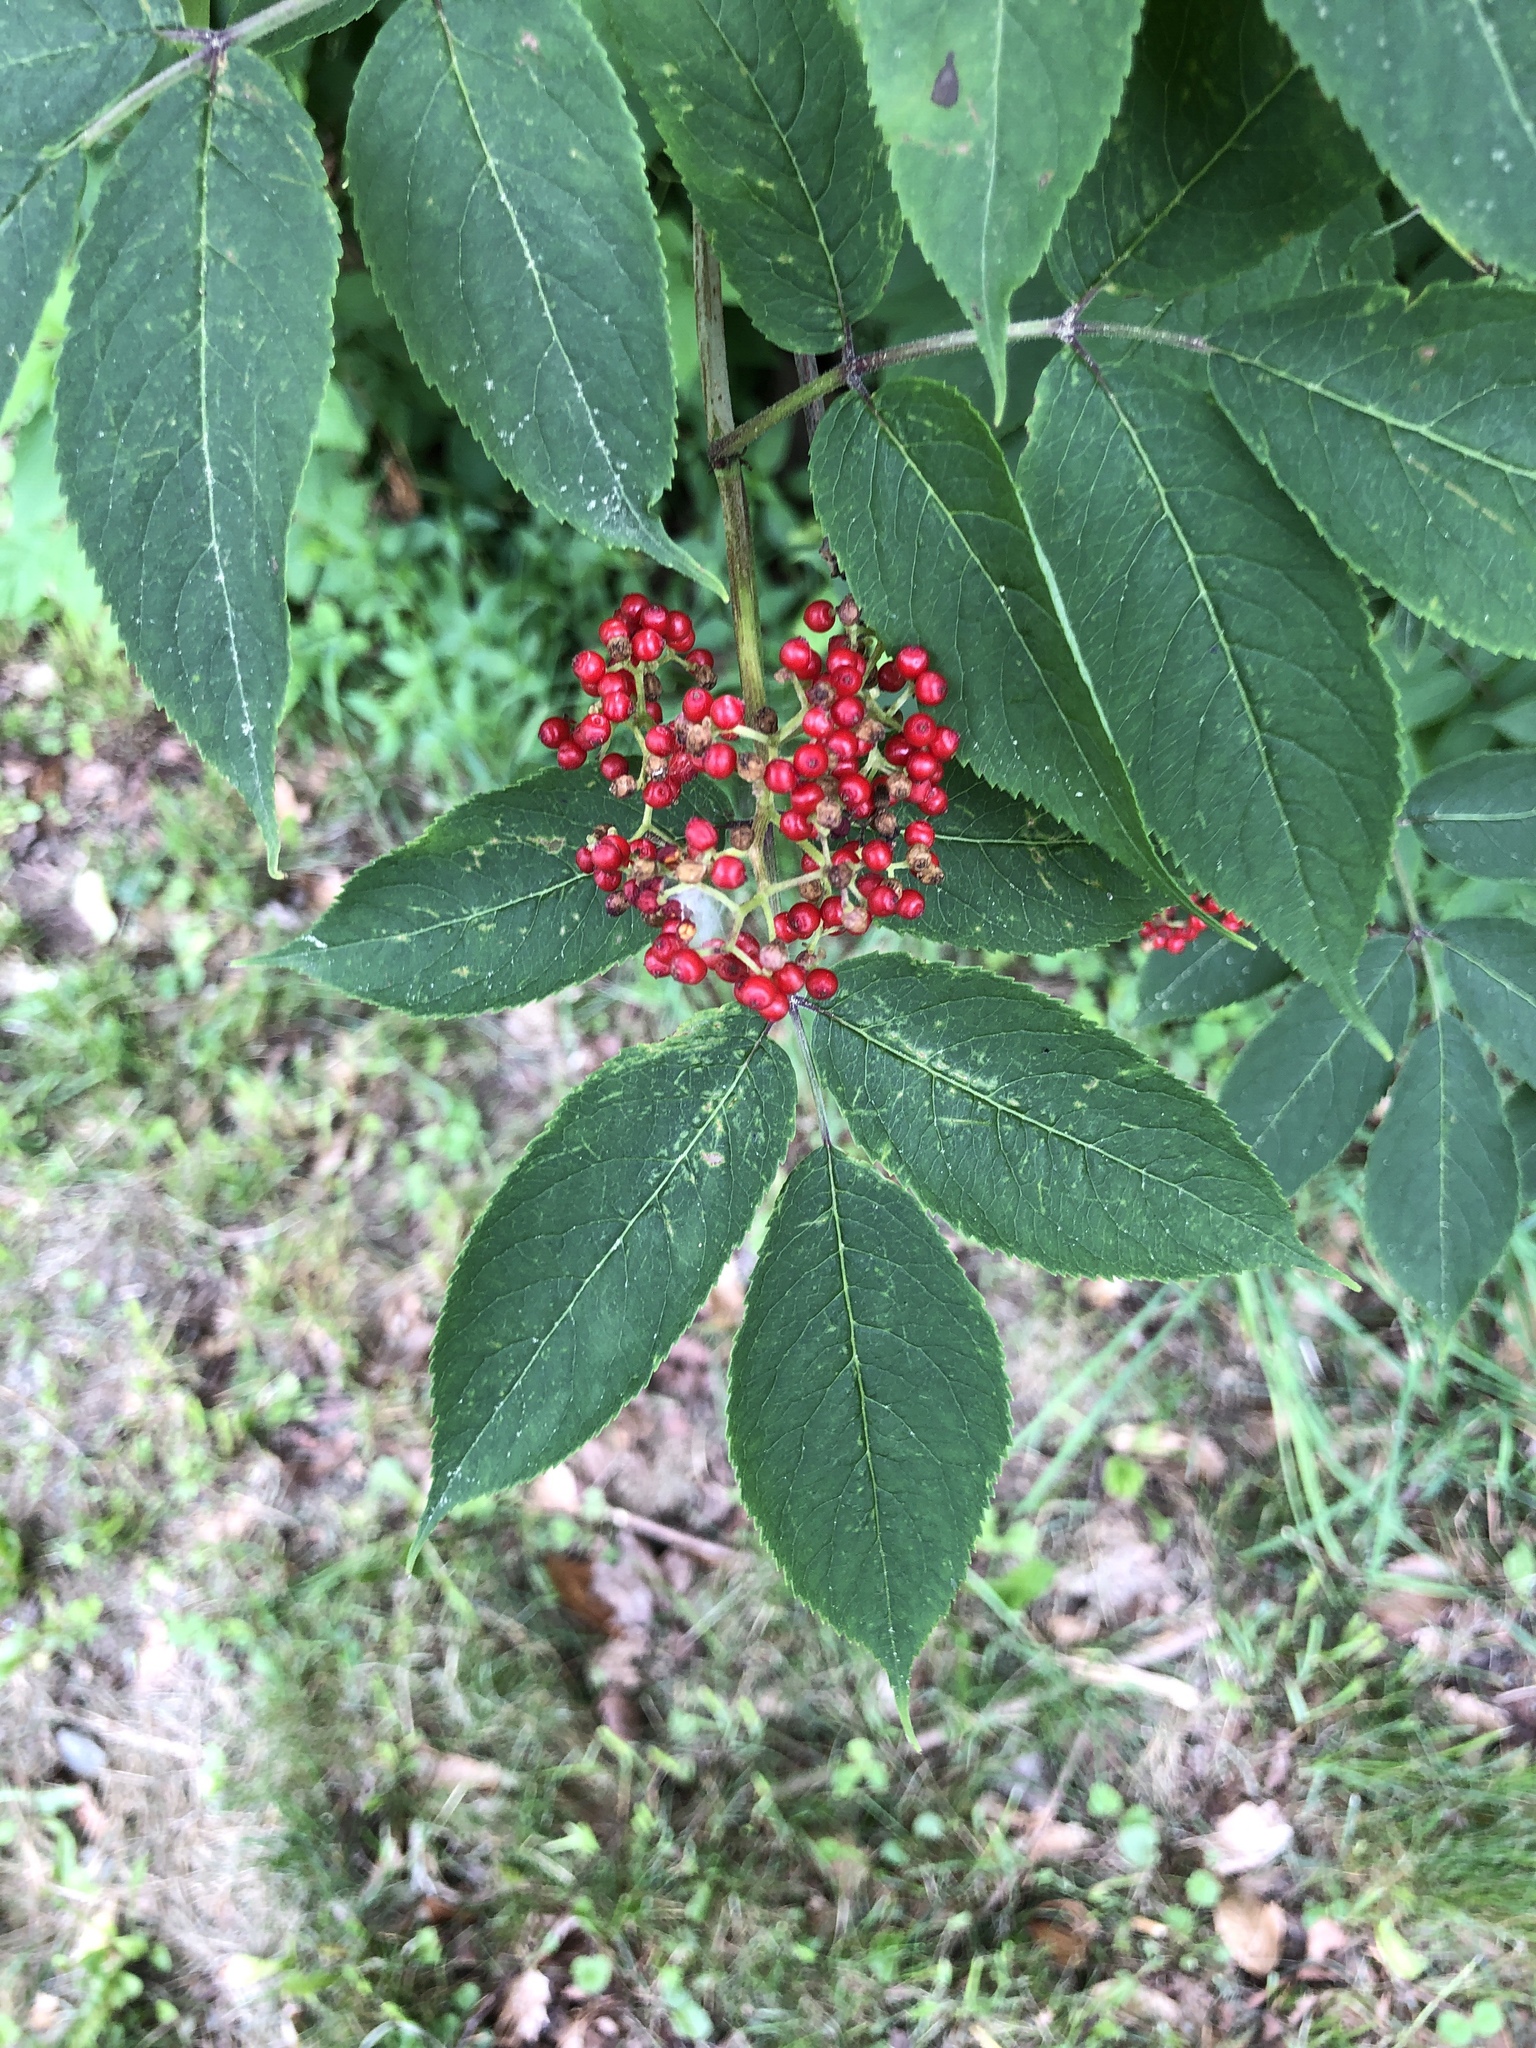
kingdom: Plantae
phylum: Tracheophyta
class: Magnoliopsida
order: Dipsacales
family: Viburnaceae
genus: Sambucus
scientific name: Sambucus racemosa
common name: Red-berried elder
